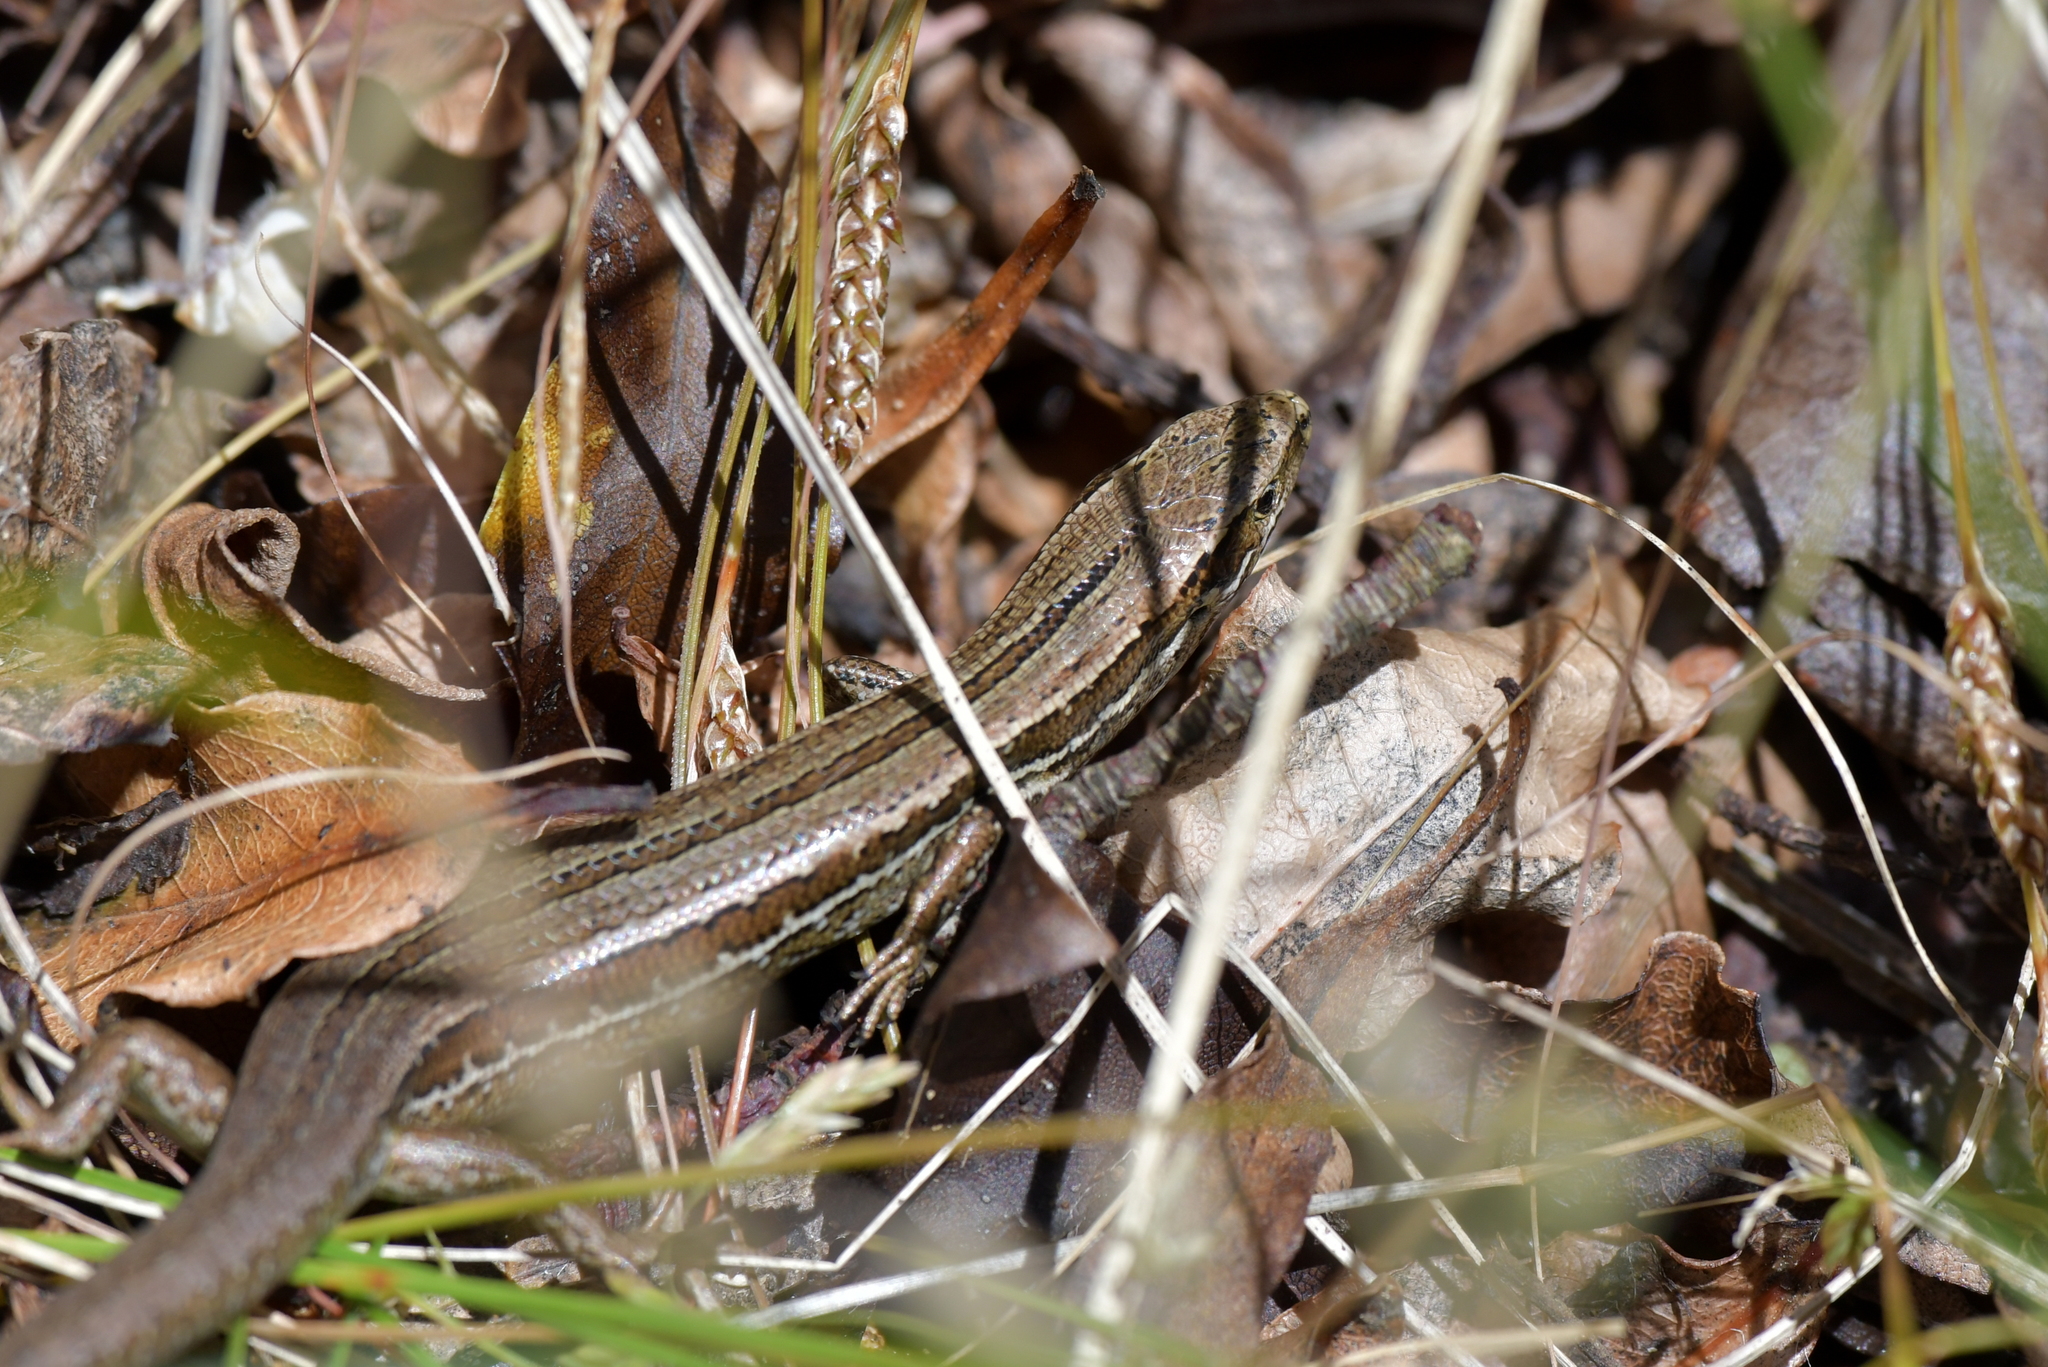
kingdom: Animalia
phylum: Chordata
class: Squamata
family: Scincidae
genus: Oligosoma
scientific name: Oligosoma polychroma
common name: Common new zealand skink
